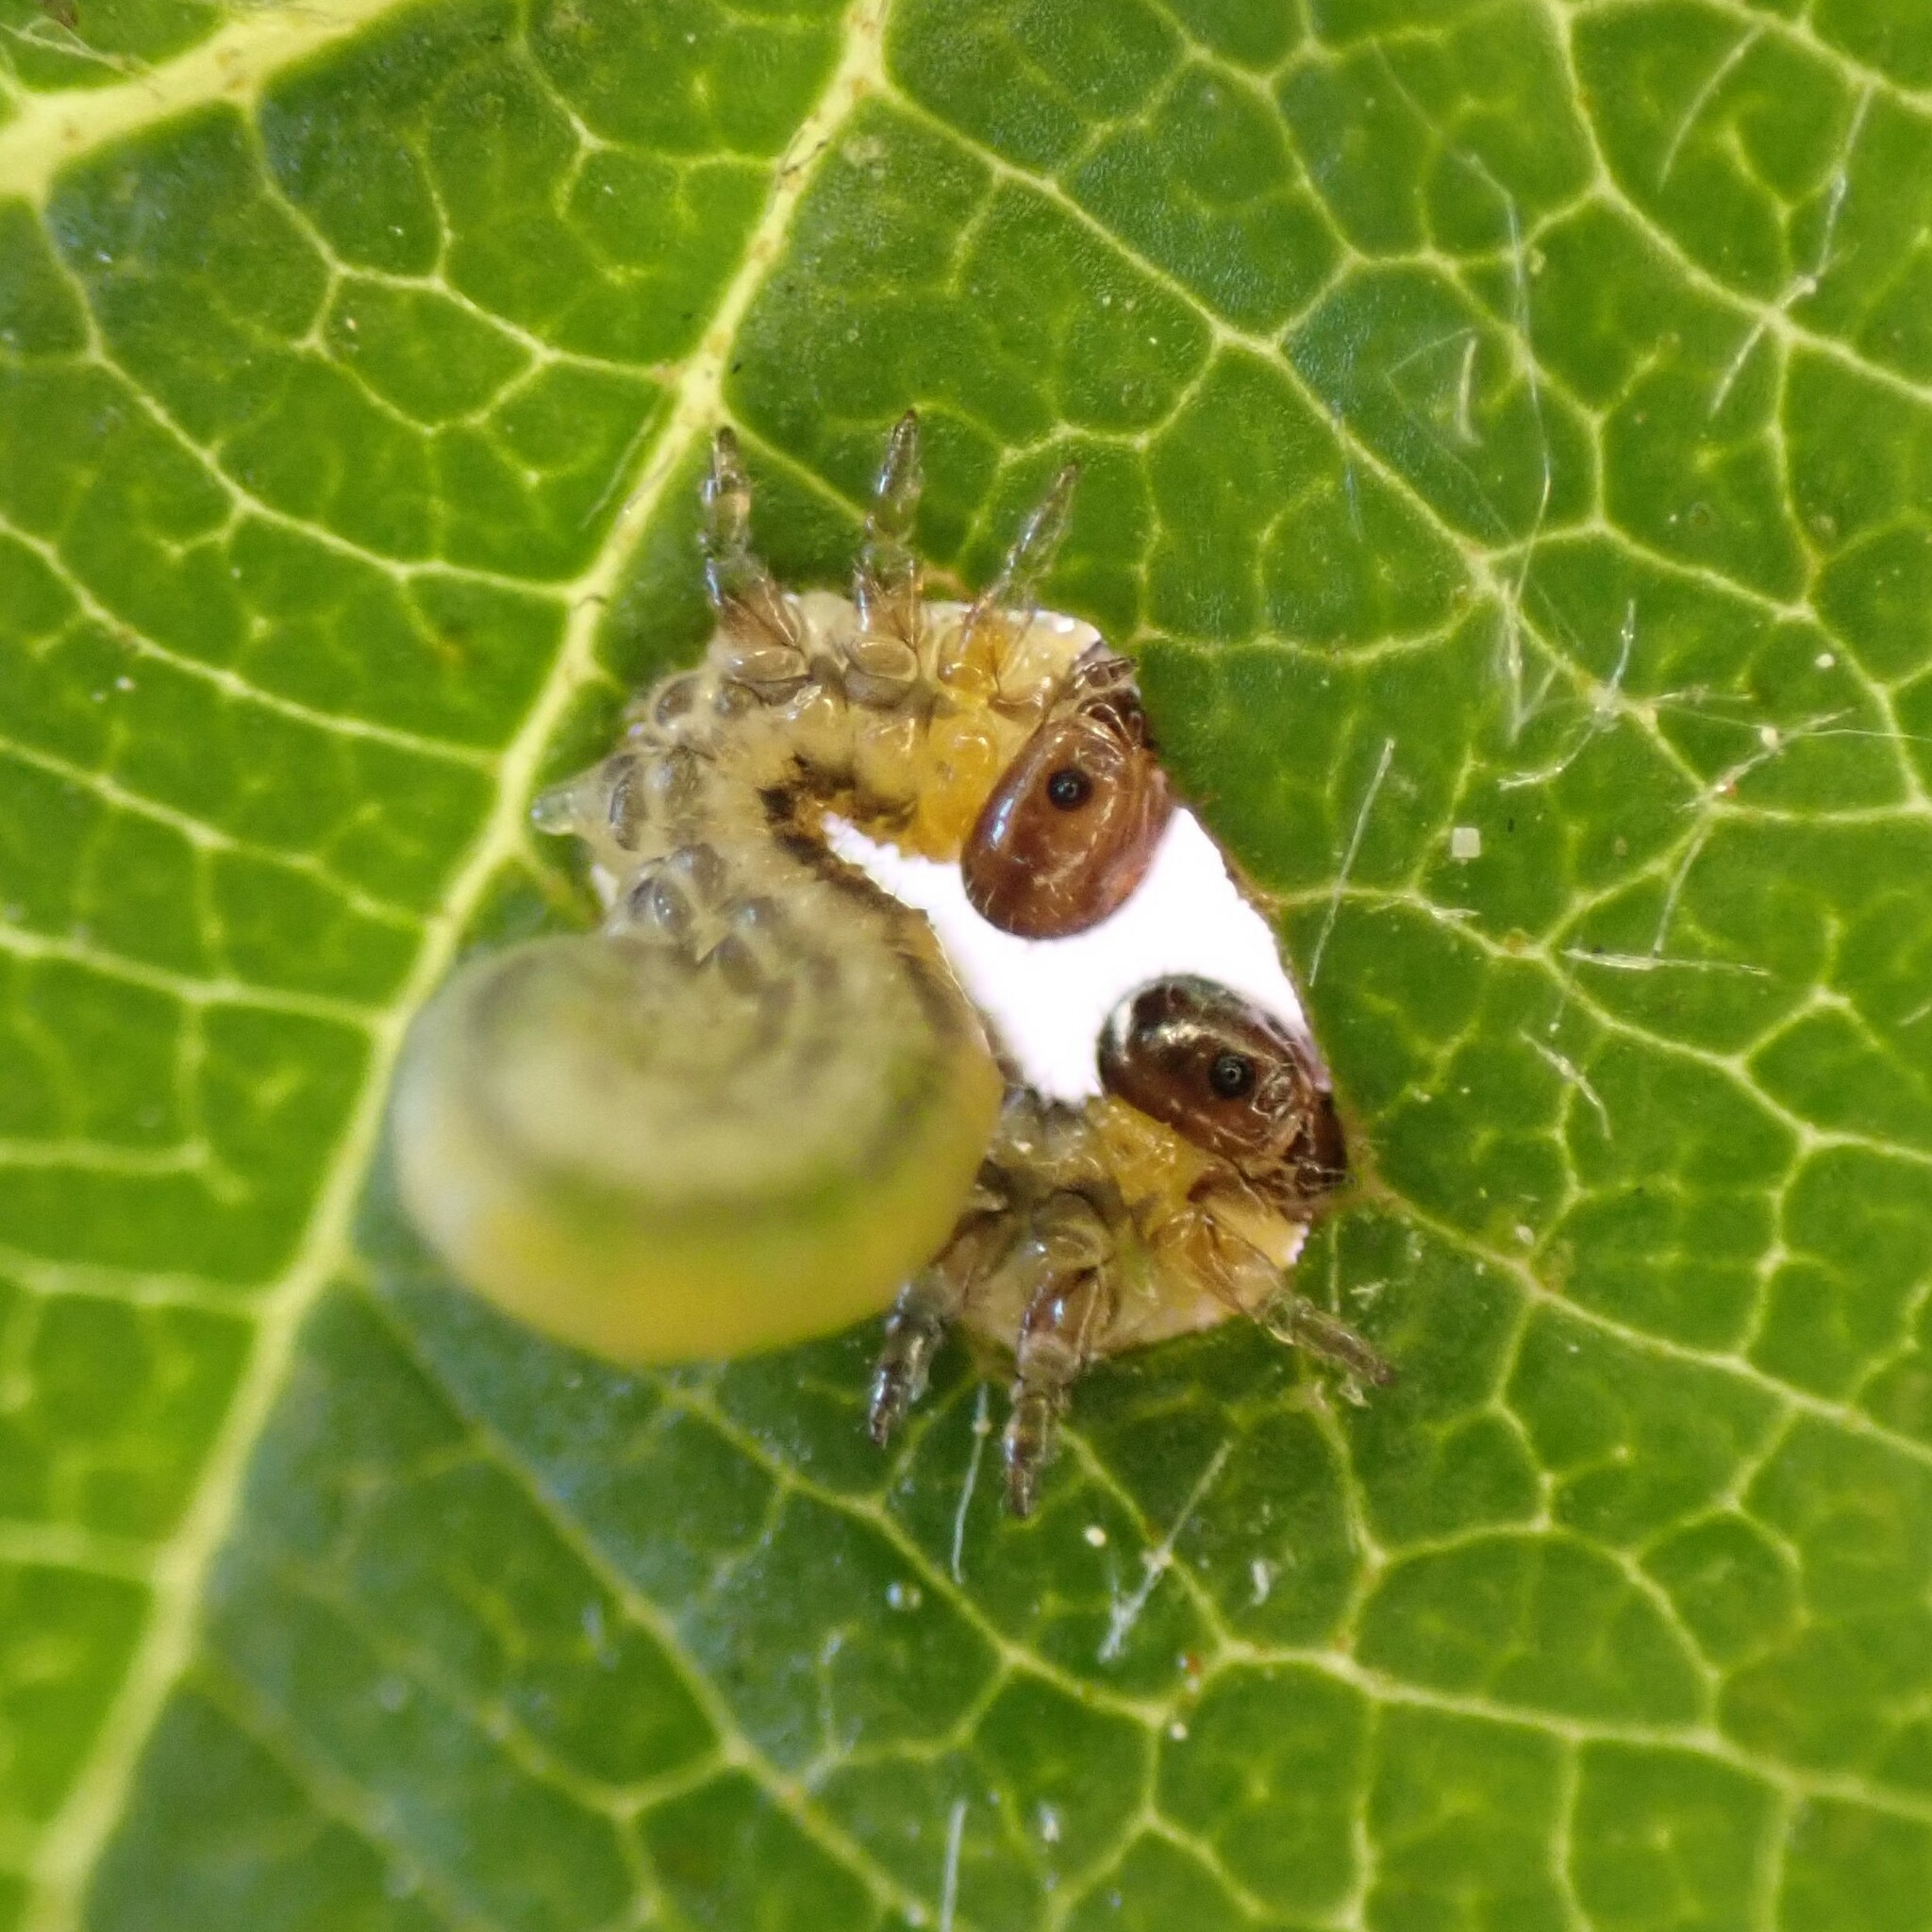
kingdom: Animalia
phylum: Arthropoda
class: Insecta
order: Hymenoptera
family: Tenthredinidae
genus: Hemichroa
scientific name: Hemichroa crocea
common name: Striped alder sawfly
